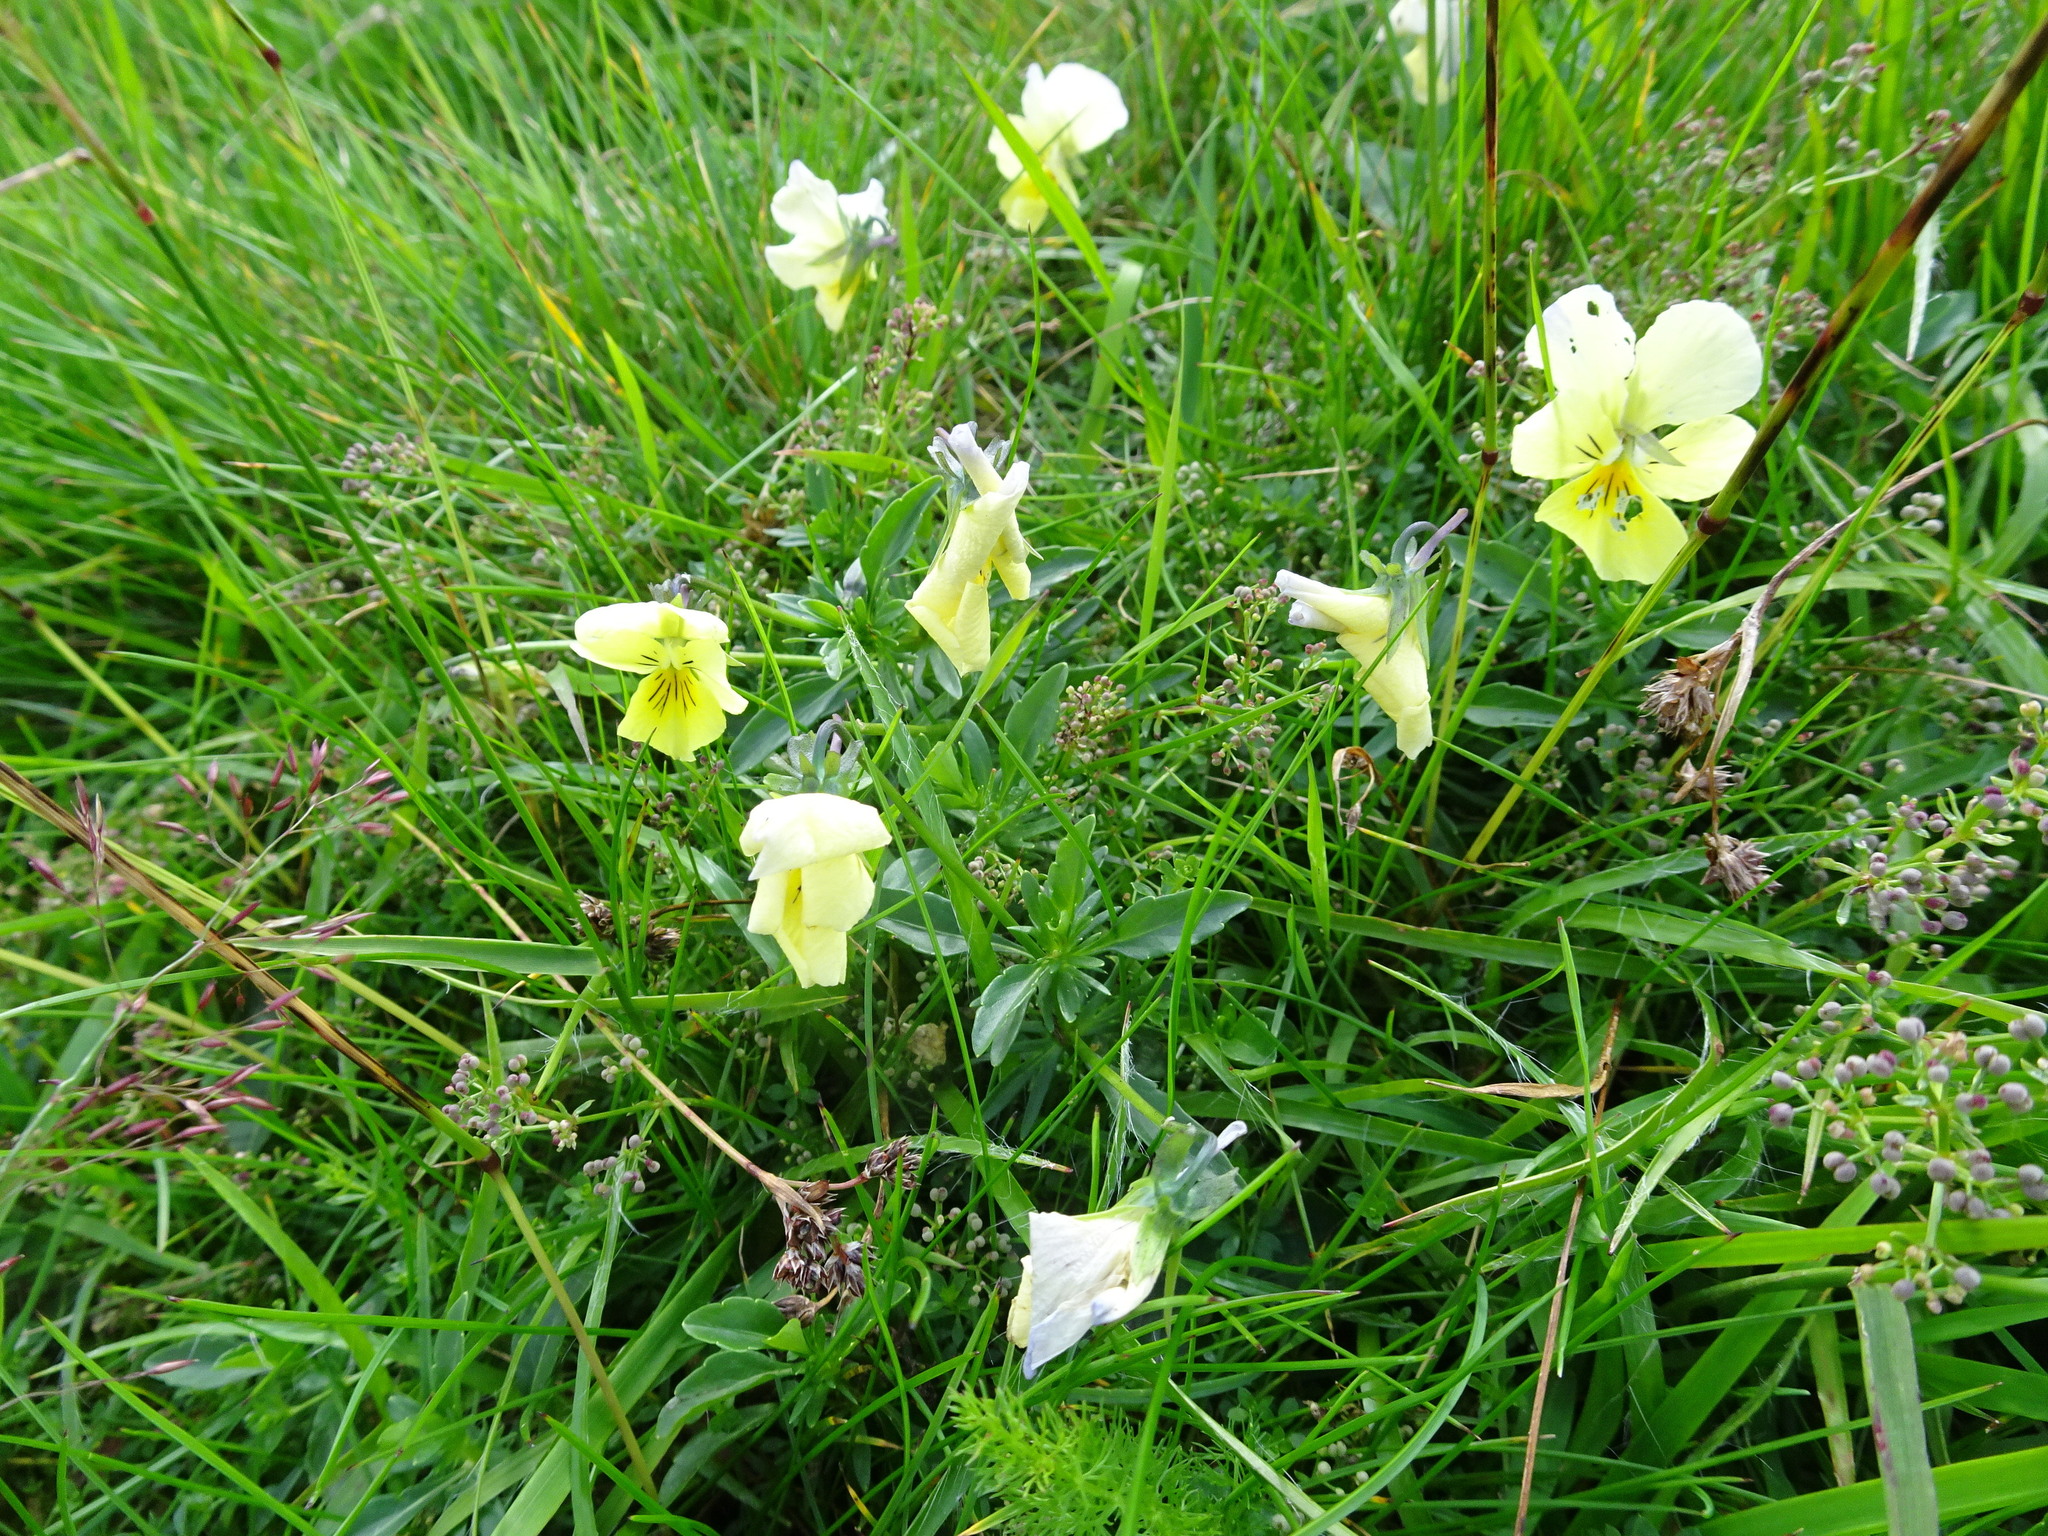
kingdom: Plantae
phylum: Tracheophyta
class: Magnoliopsida
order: Malpighiales
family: Violaceae
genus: Viola
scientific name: Viola lutea
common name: Mountain pansy
